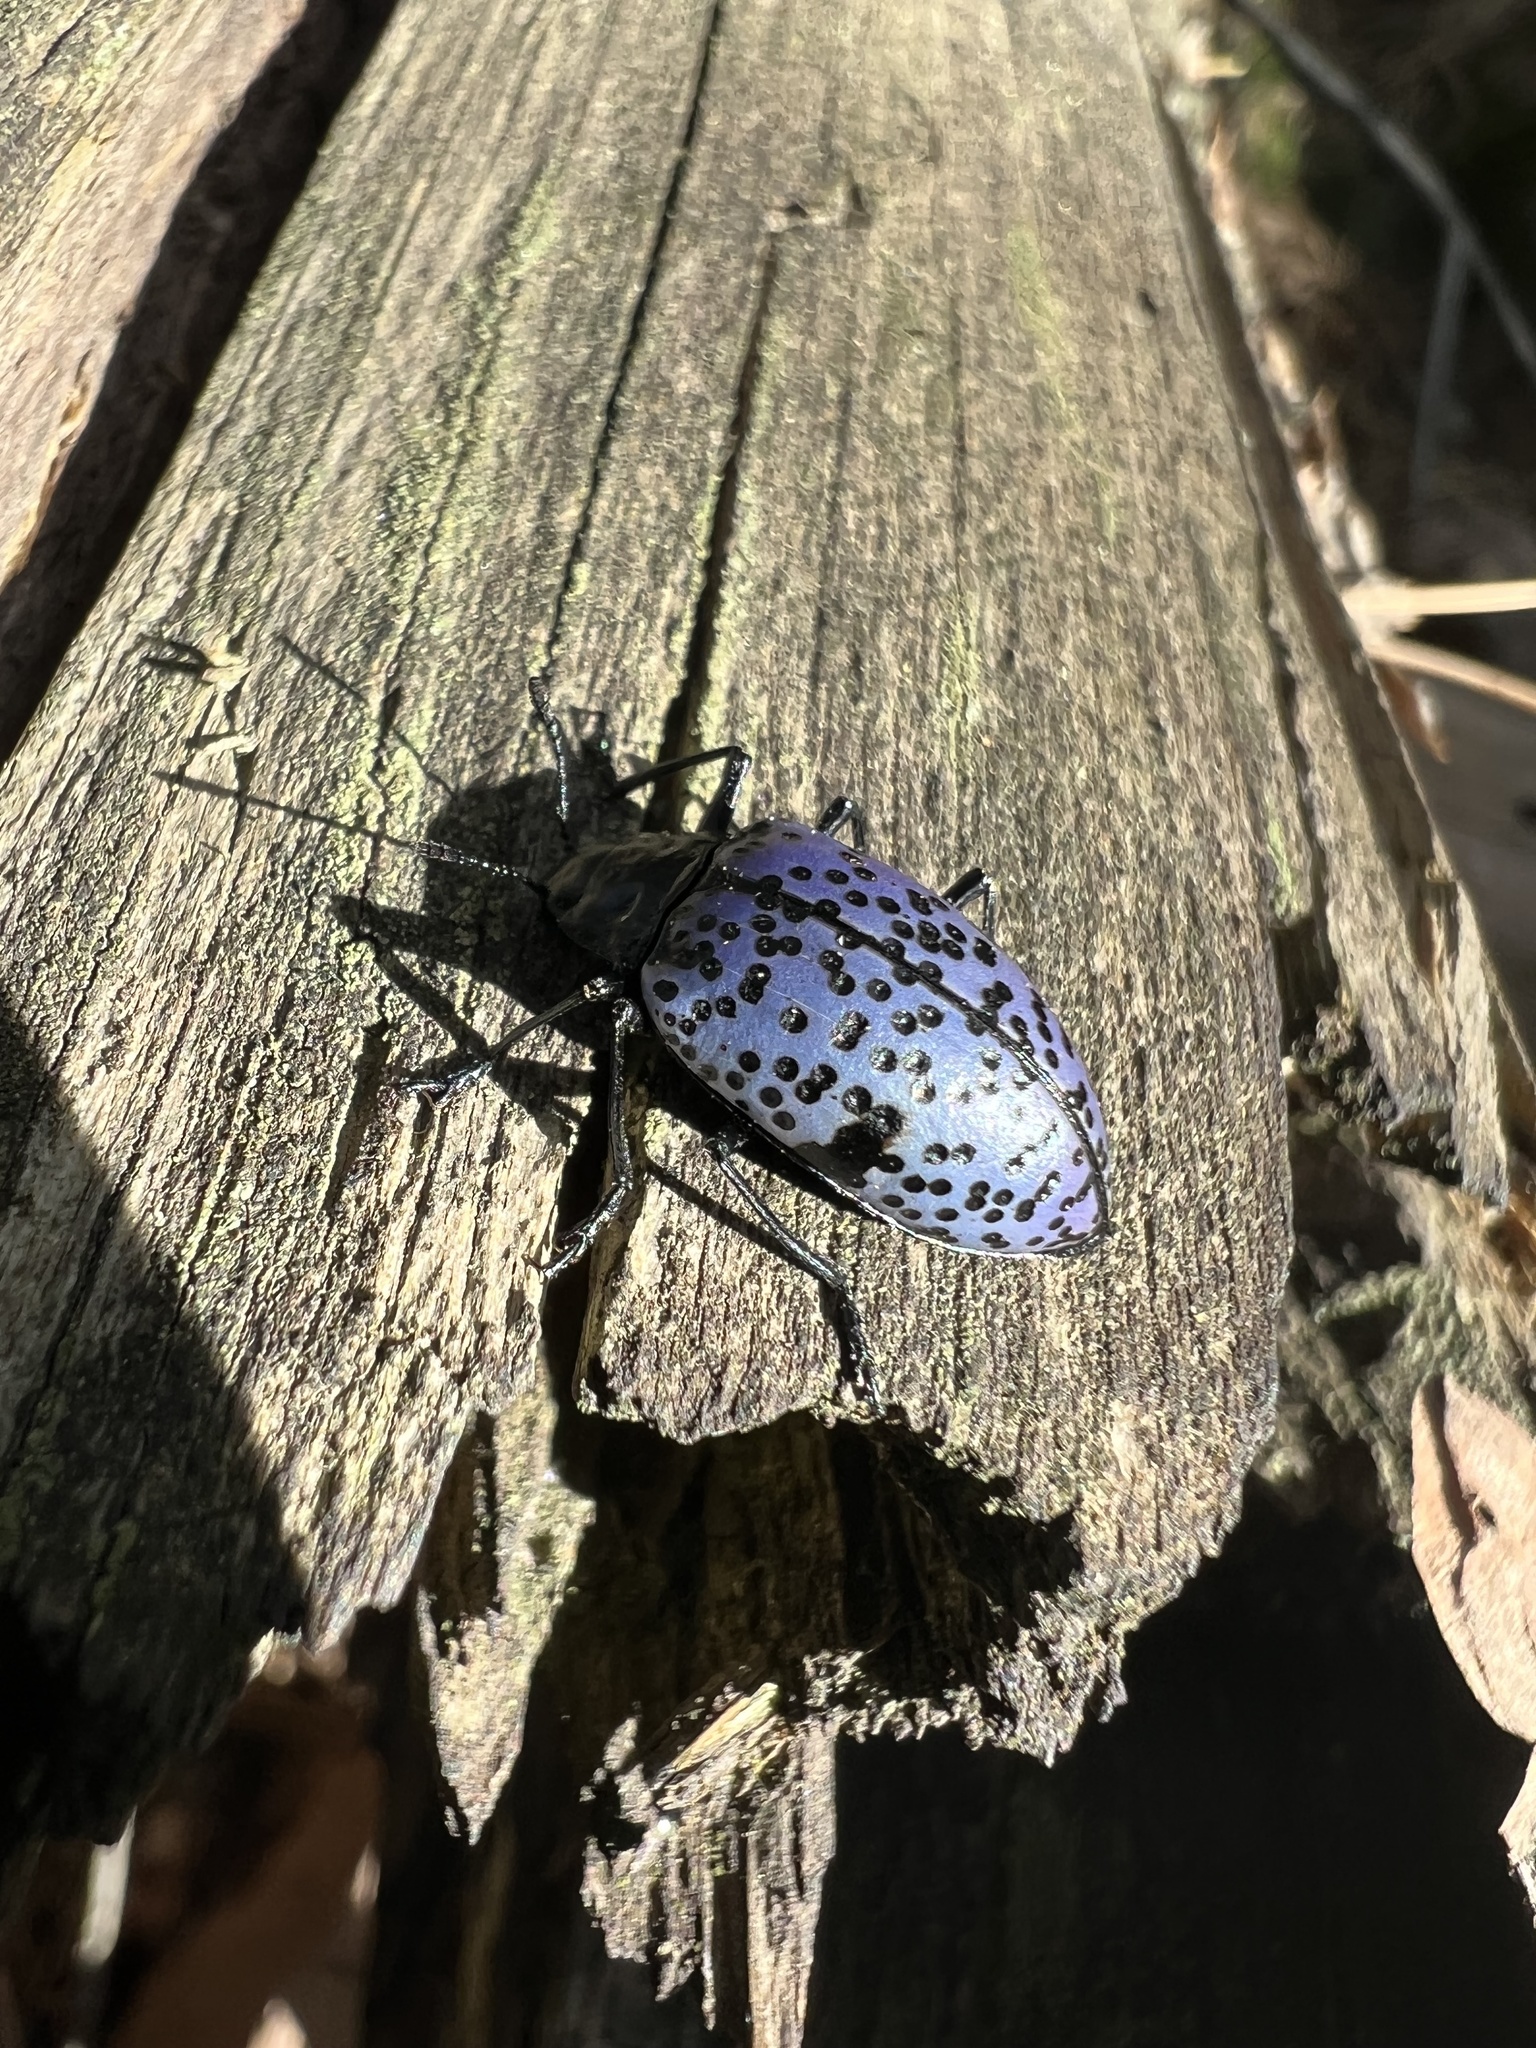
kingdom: Animalia
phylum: Arthropoda
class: Insecta
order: Coleoptera
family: Erotylidae
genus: Gibbifer
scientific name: Gibbifer californicus
